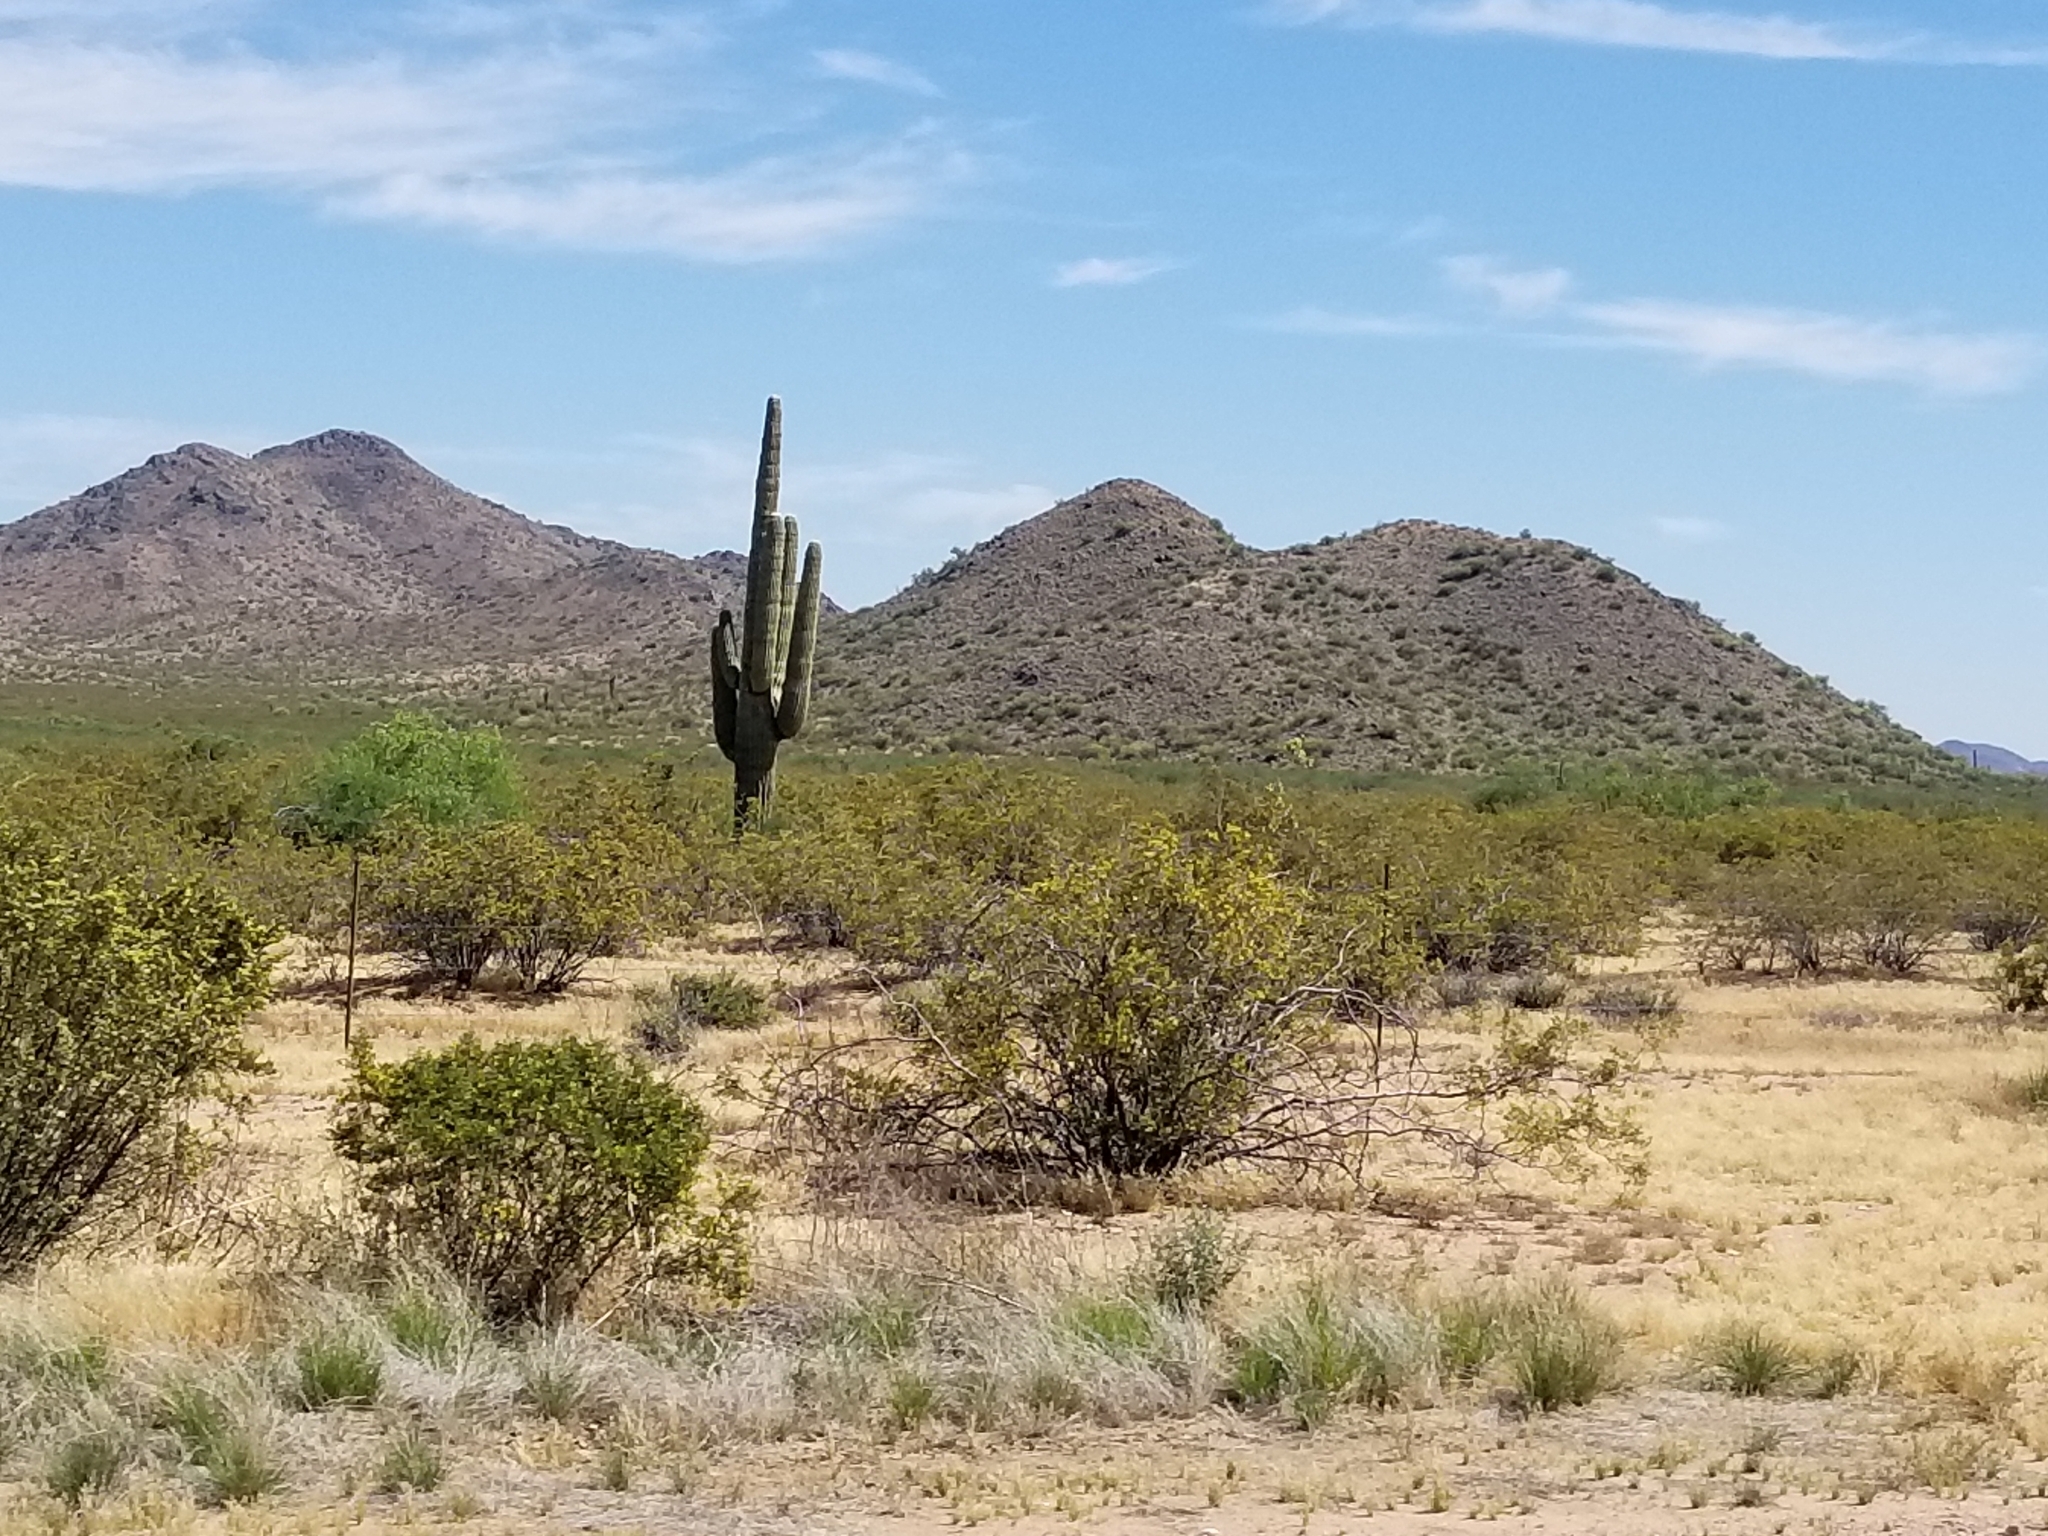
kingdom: Plantae
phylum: Tracheophyta
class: Magnoliopsida
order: Caryophyllales
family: Cactaceae
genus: Carnegiea
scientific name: Carnegiea gigantea
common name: Saguaro
